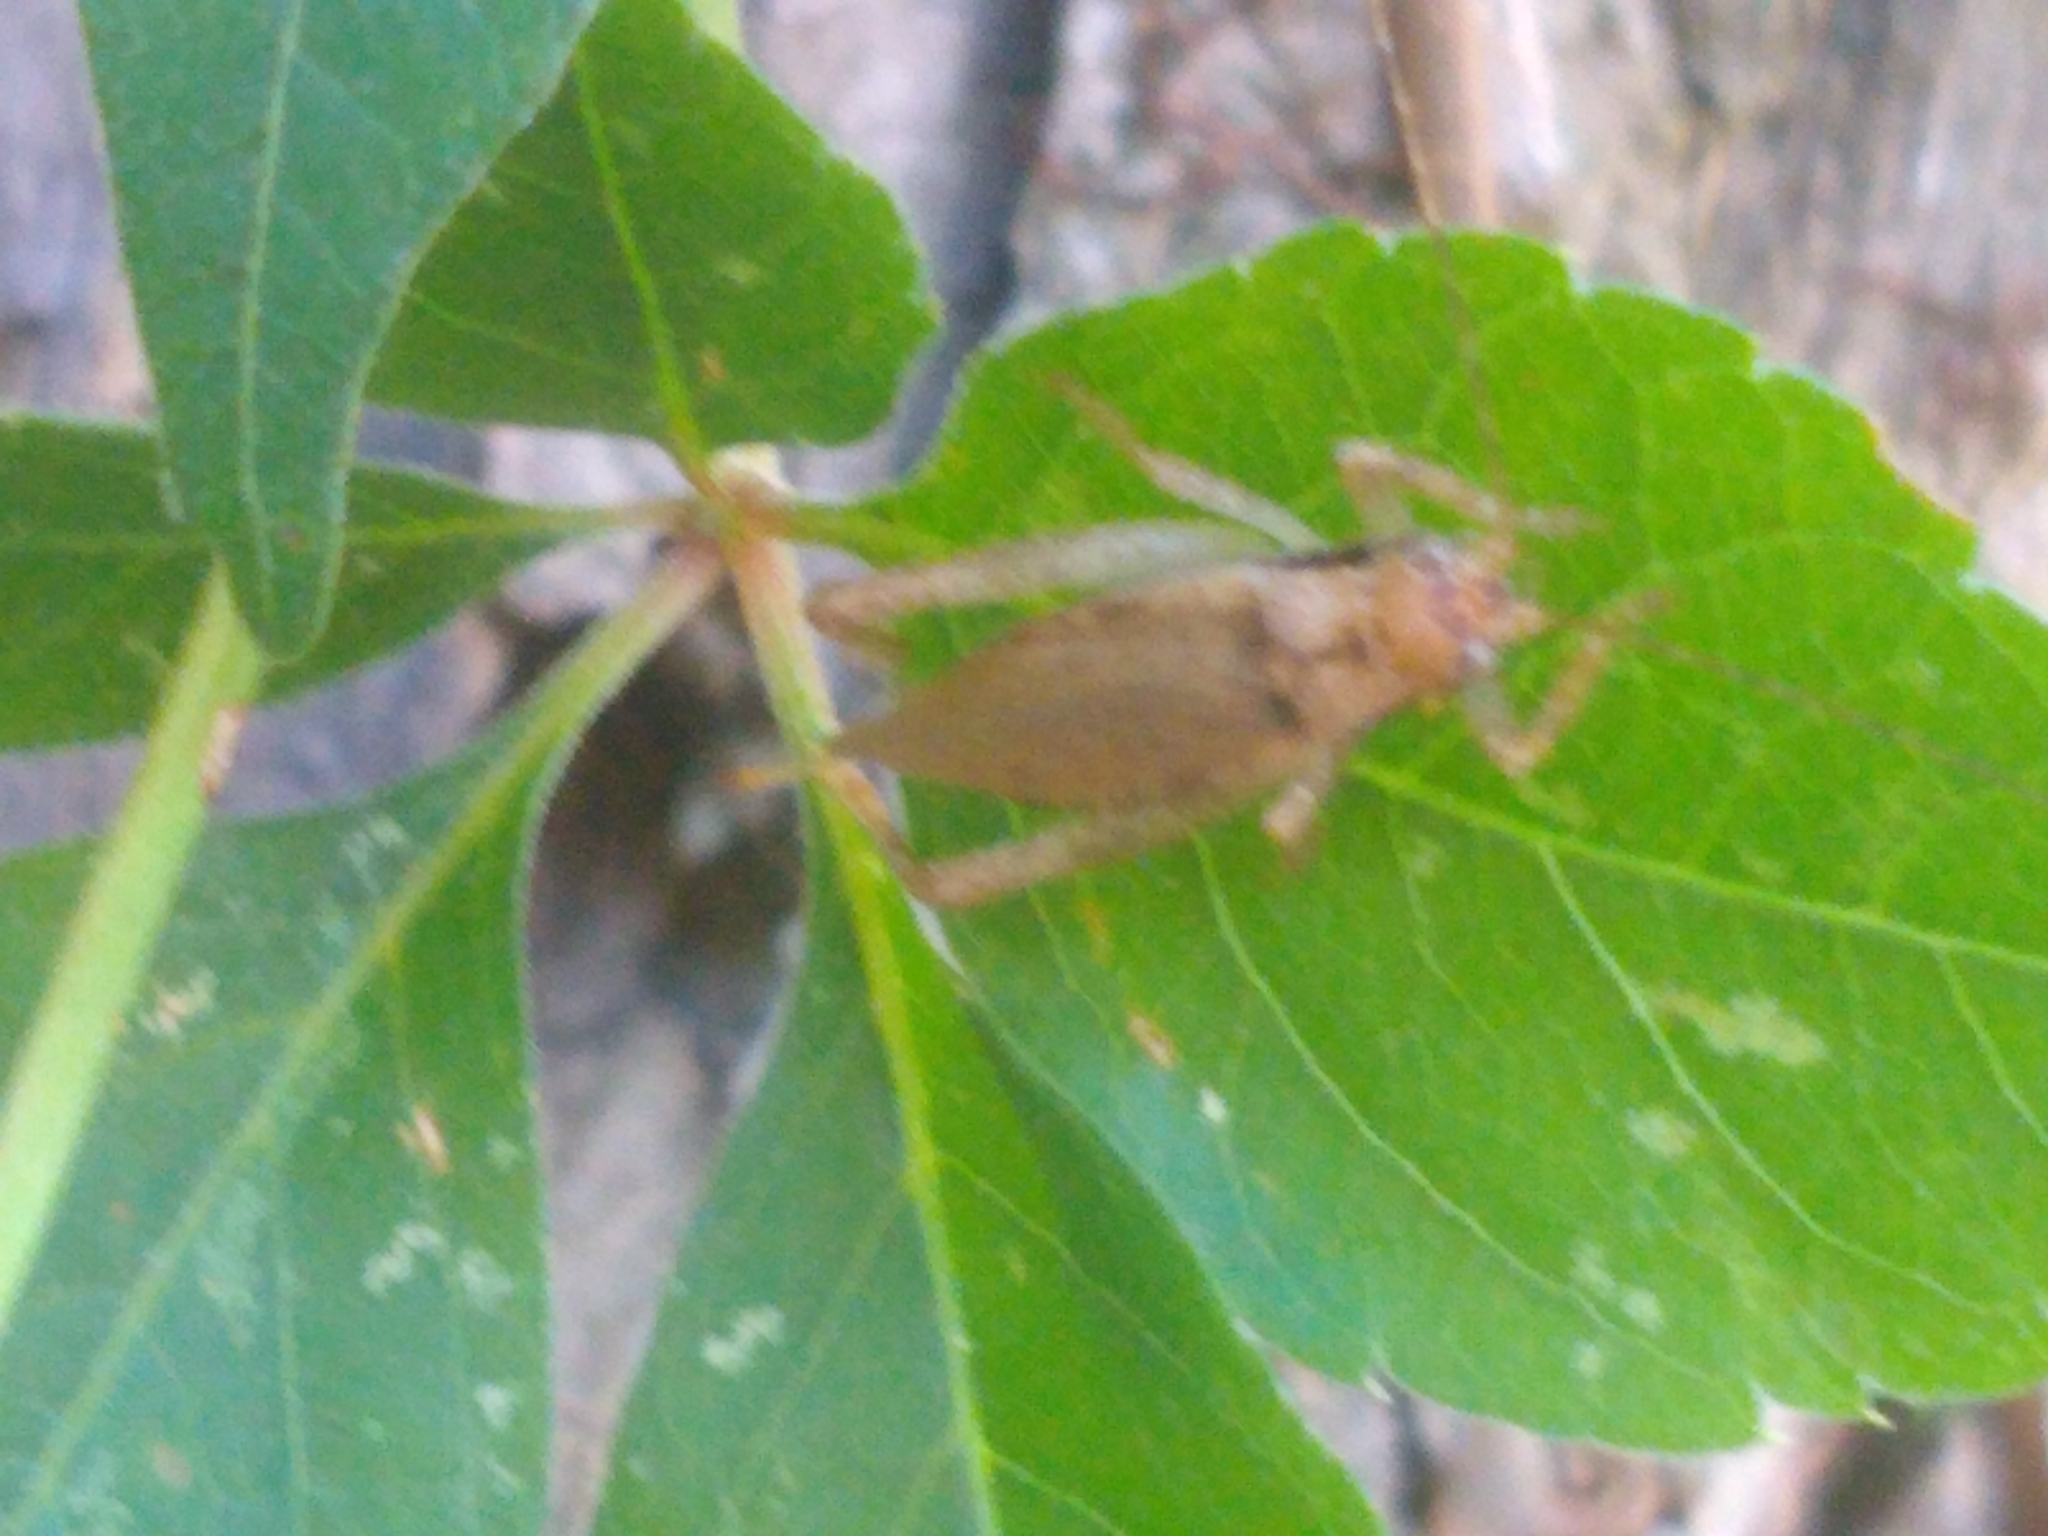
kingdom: Animalia
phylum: Arthropoda
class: Insecta
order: Orthoptera
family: Gryllidae
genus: Hapithus
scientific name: Hapithus saltator
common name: Jumping bush cricket
